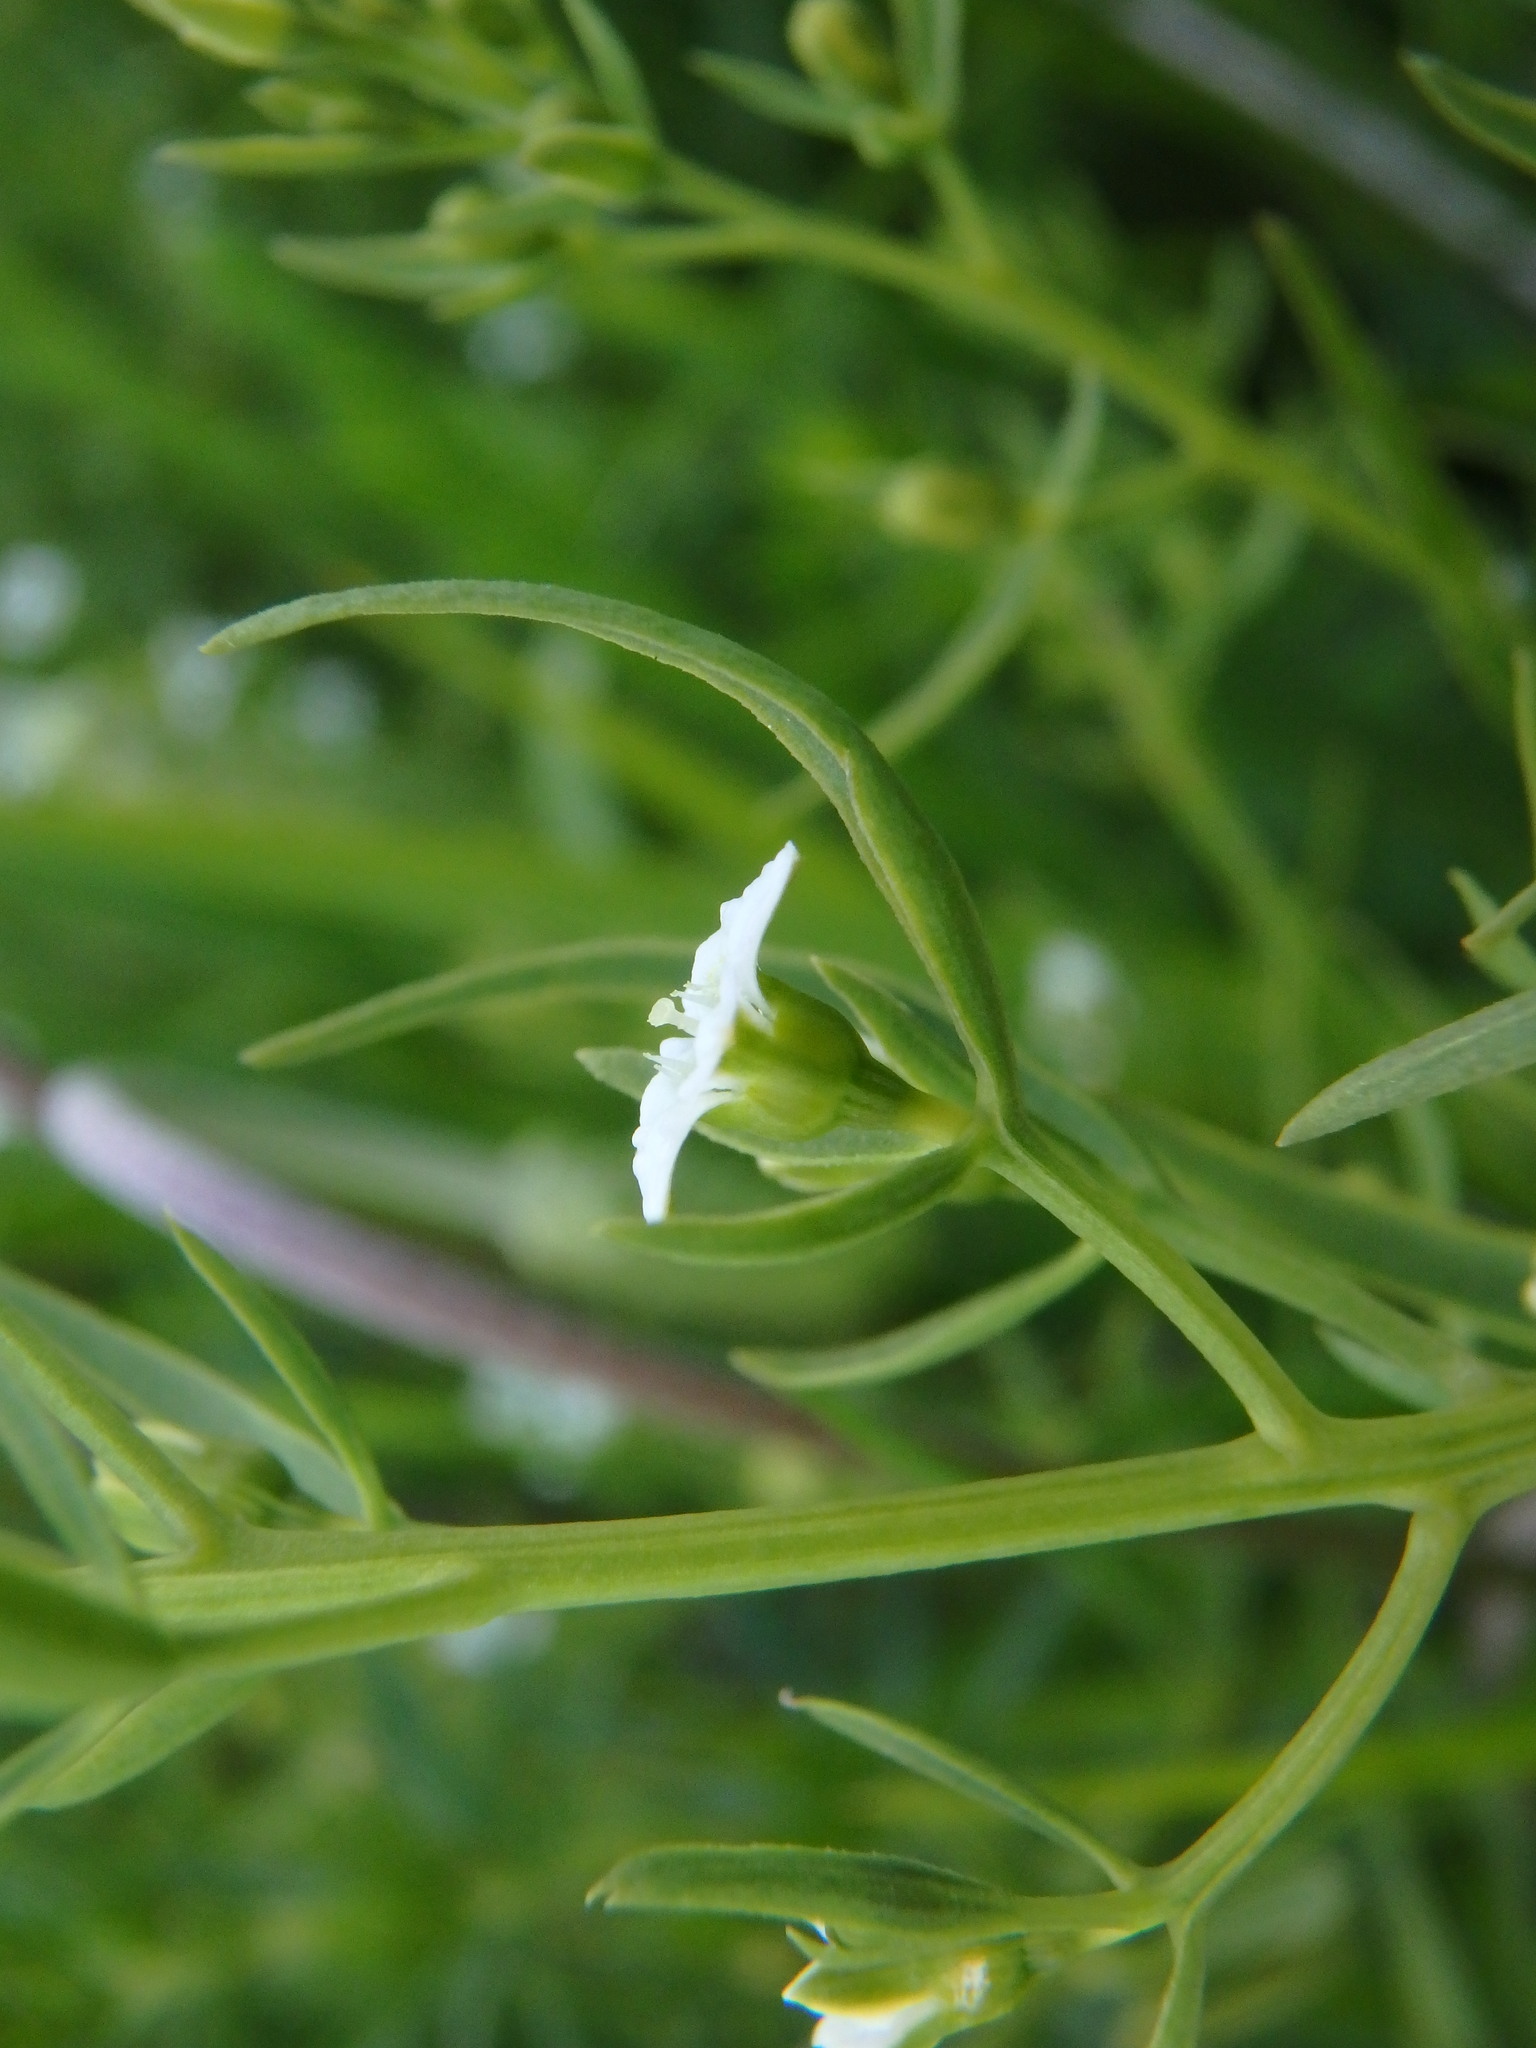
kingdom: Plantae
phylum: Tracheophyta
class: Magnoliopsida
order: Santalales
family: Thesiaceae
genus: Thesium
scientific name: Thesium linophyllon
